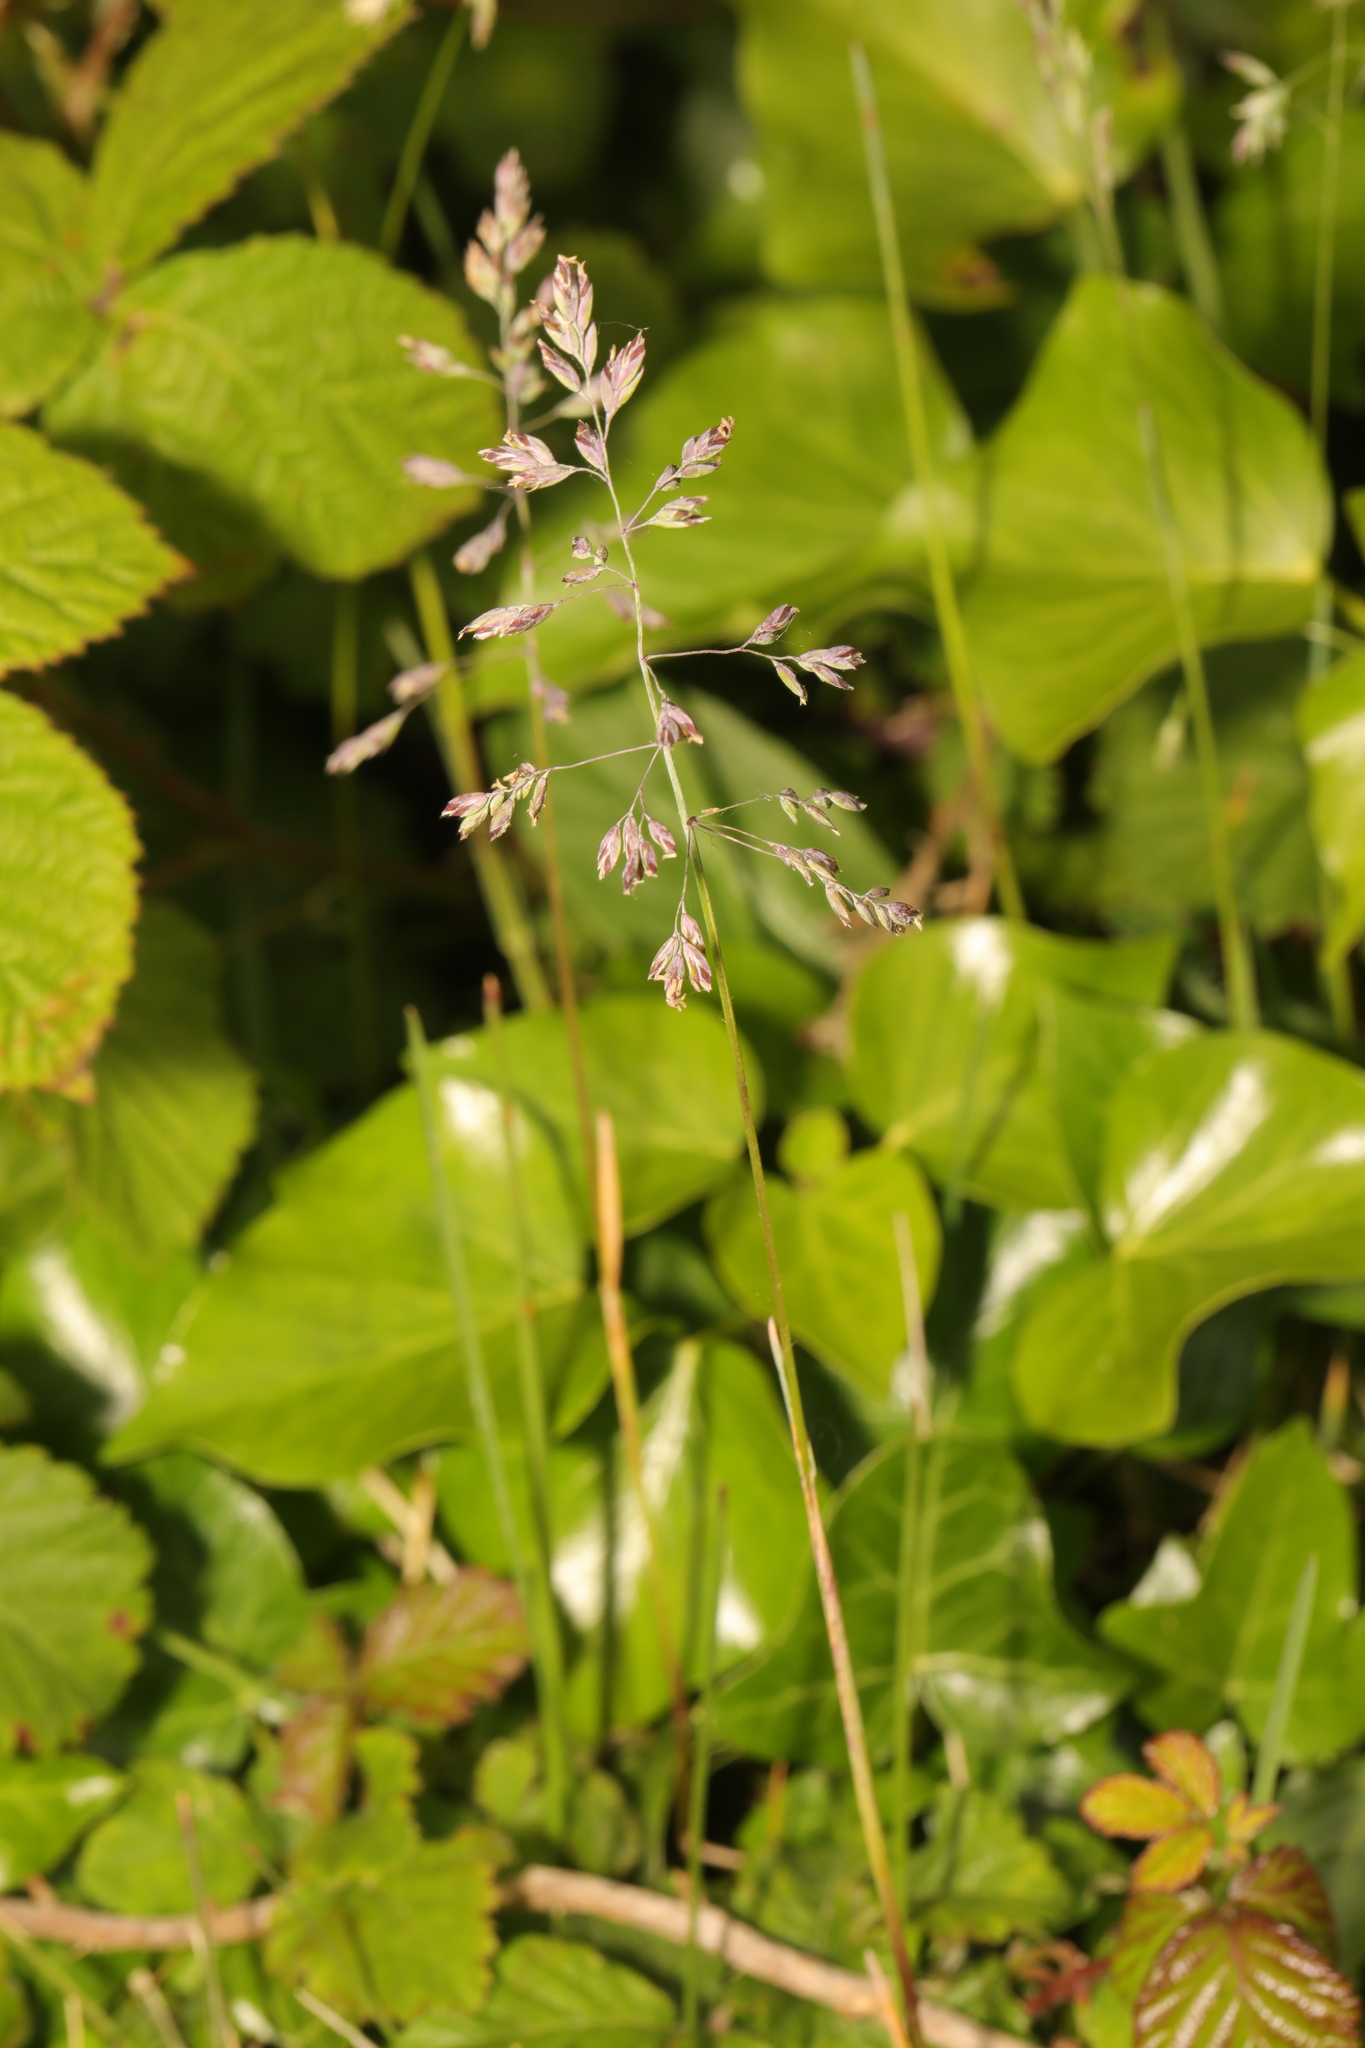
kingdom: Plantae
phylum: Tracheophyta
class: Liliopsida
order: Poales
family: Poaceae
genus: Poa
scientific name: Poa annua
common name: Annual bluegrass
